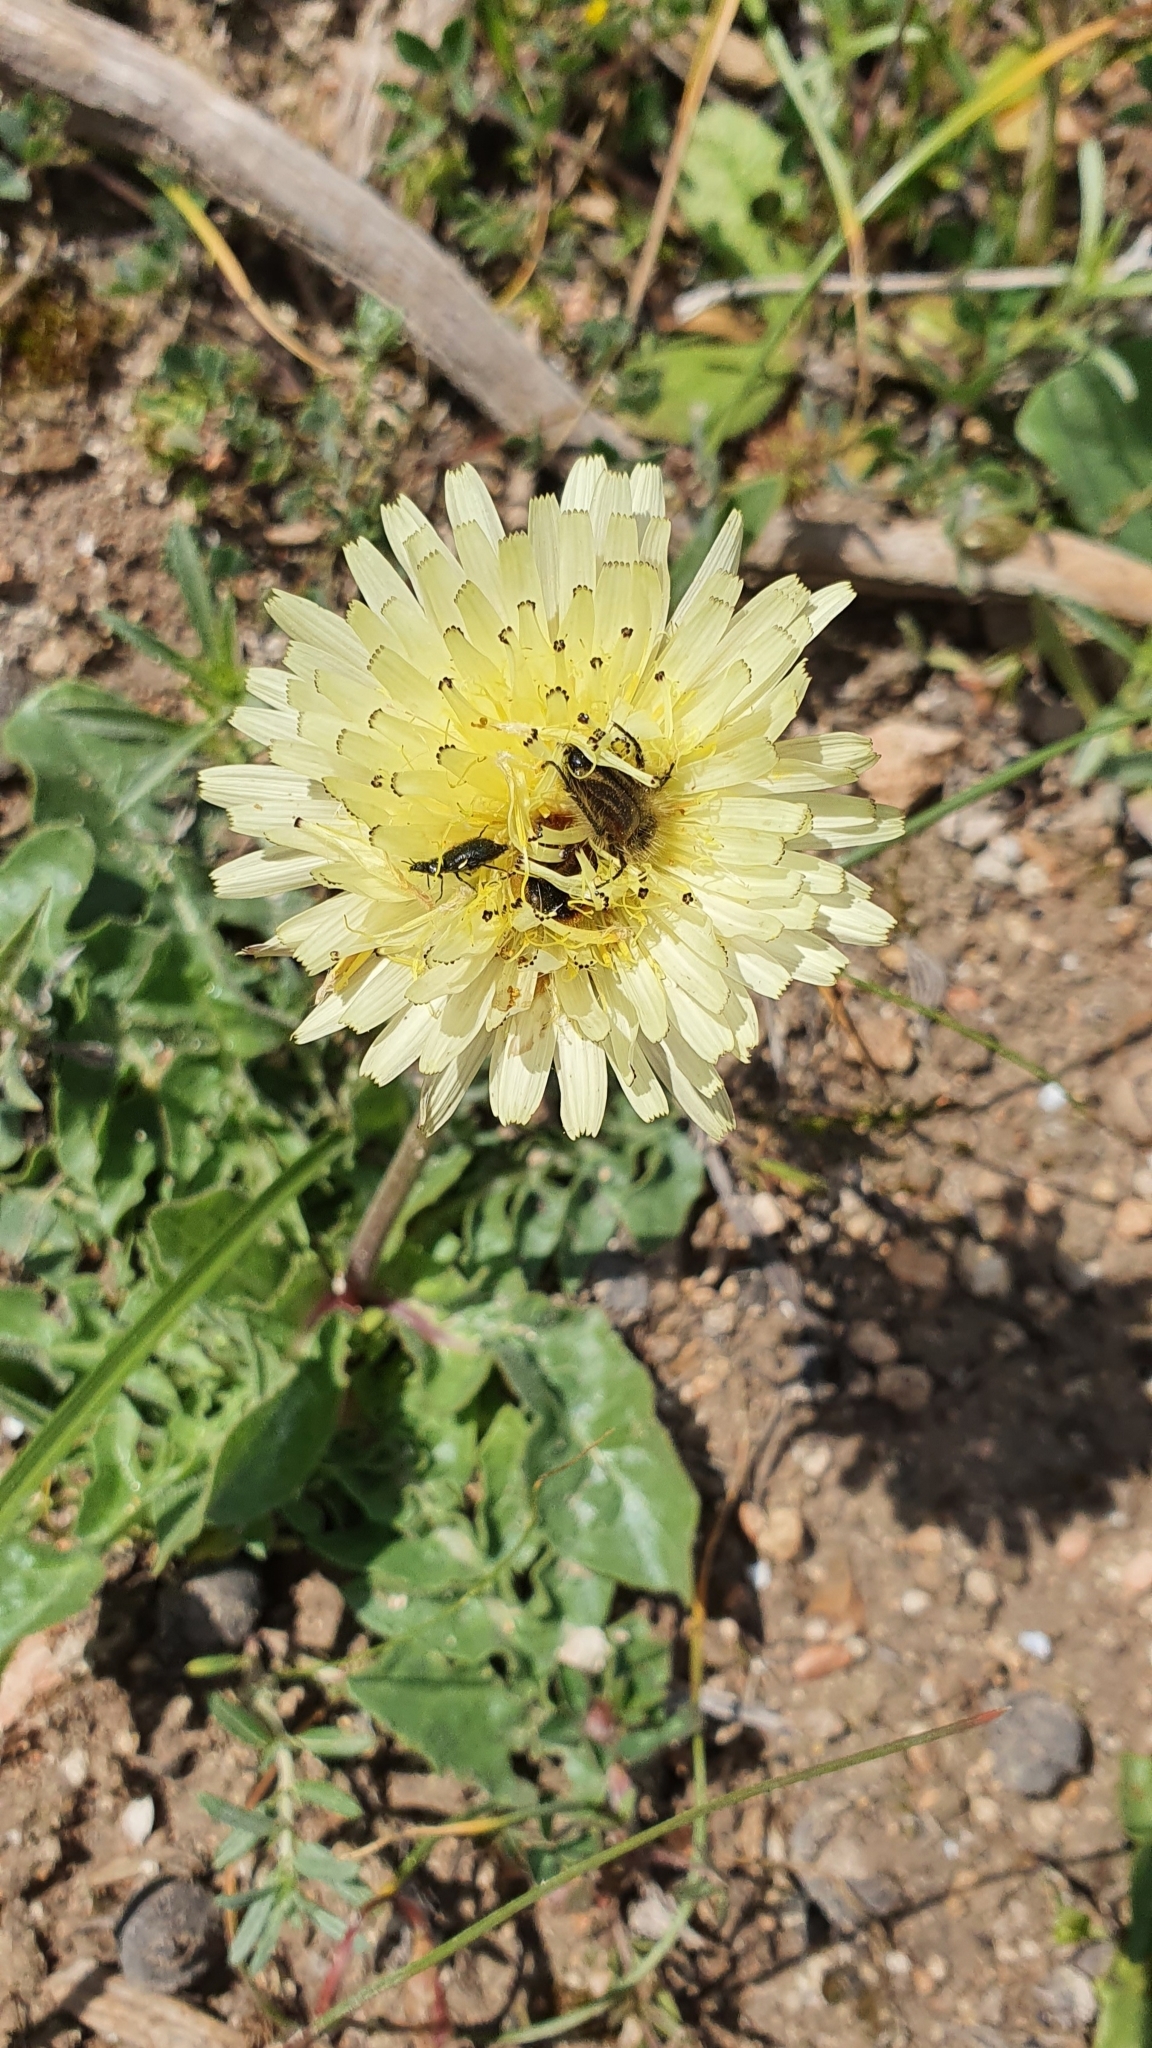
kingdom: Plantae
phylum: Tracheophyta
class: Magnoliopsida
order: Asterales
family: Asteraceae
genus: Urospermum
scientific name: Urospermum dalechampii
